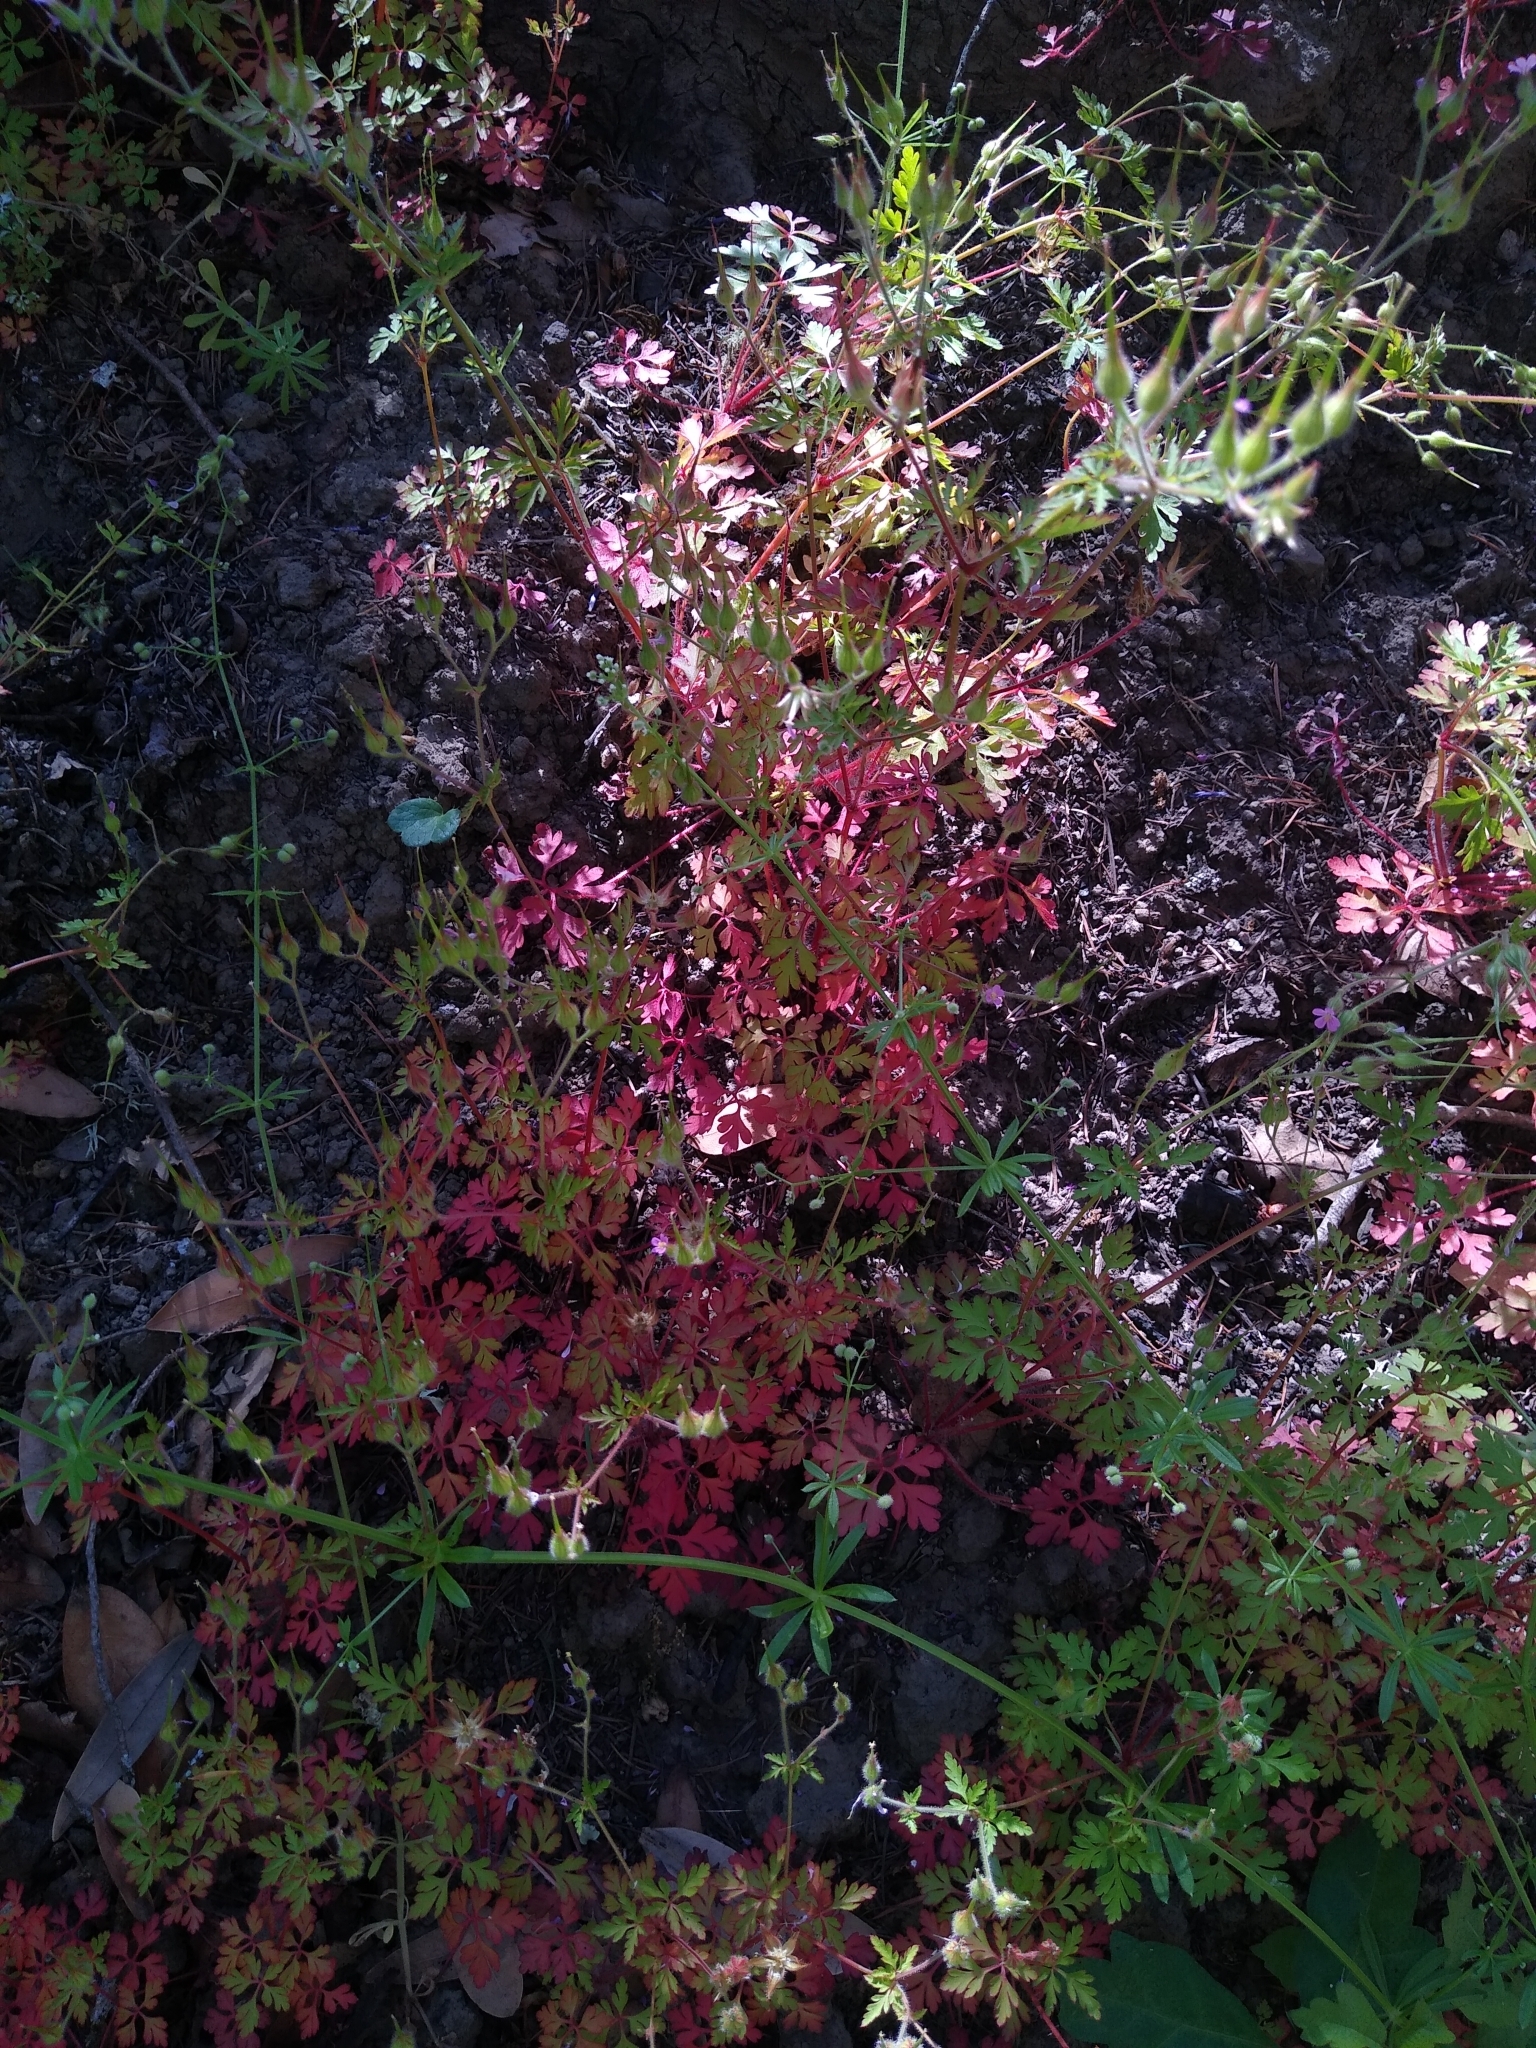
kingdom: Plantae
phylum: Tracheophyta
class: Magnoliopsida
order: Geraniales
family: Geraniaceae
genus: Geranium
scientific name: Geranium purpureum
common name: Little-robin
